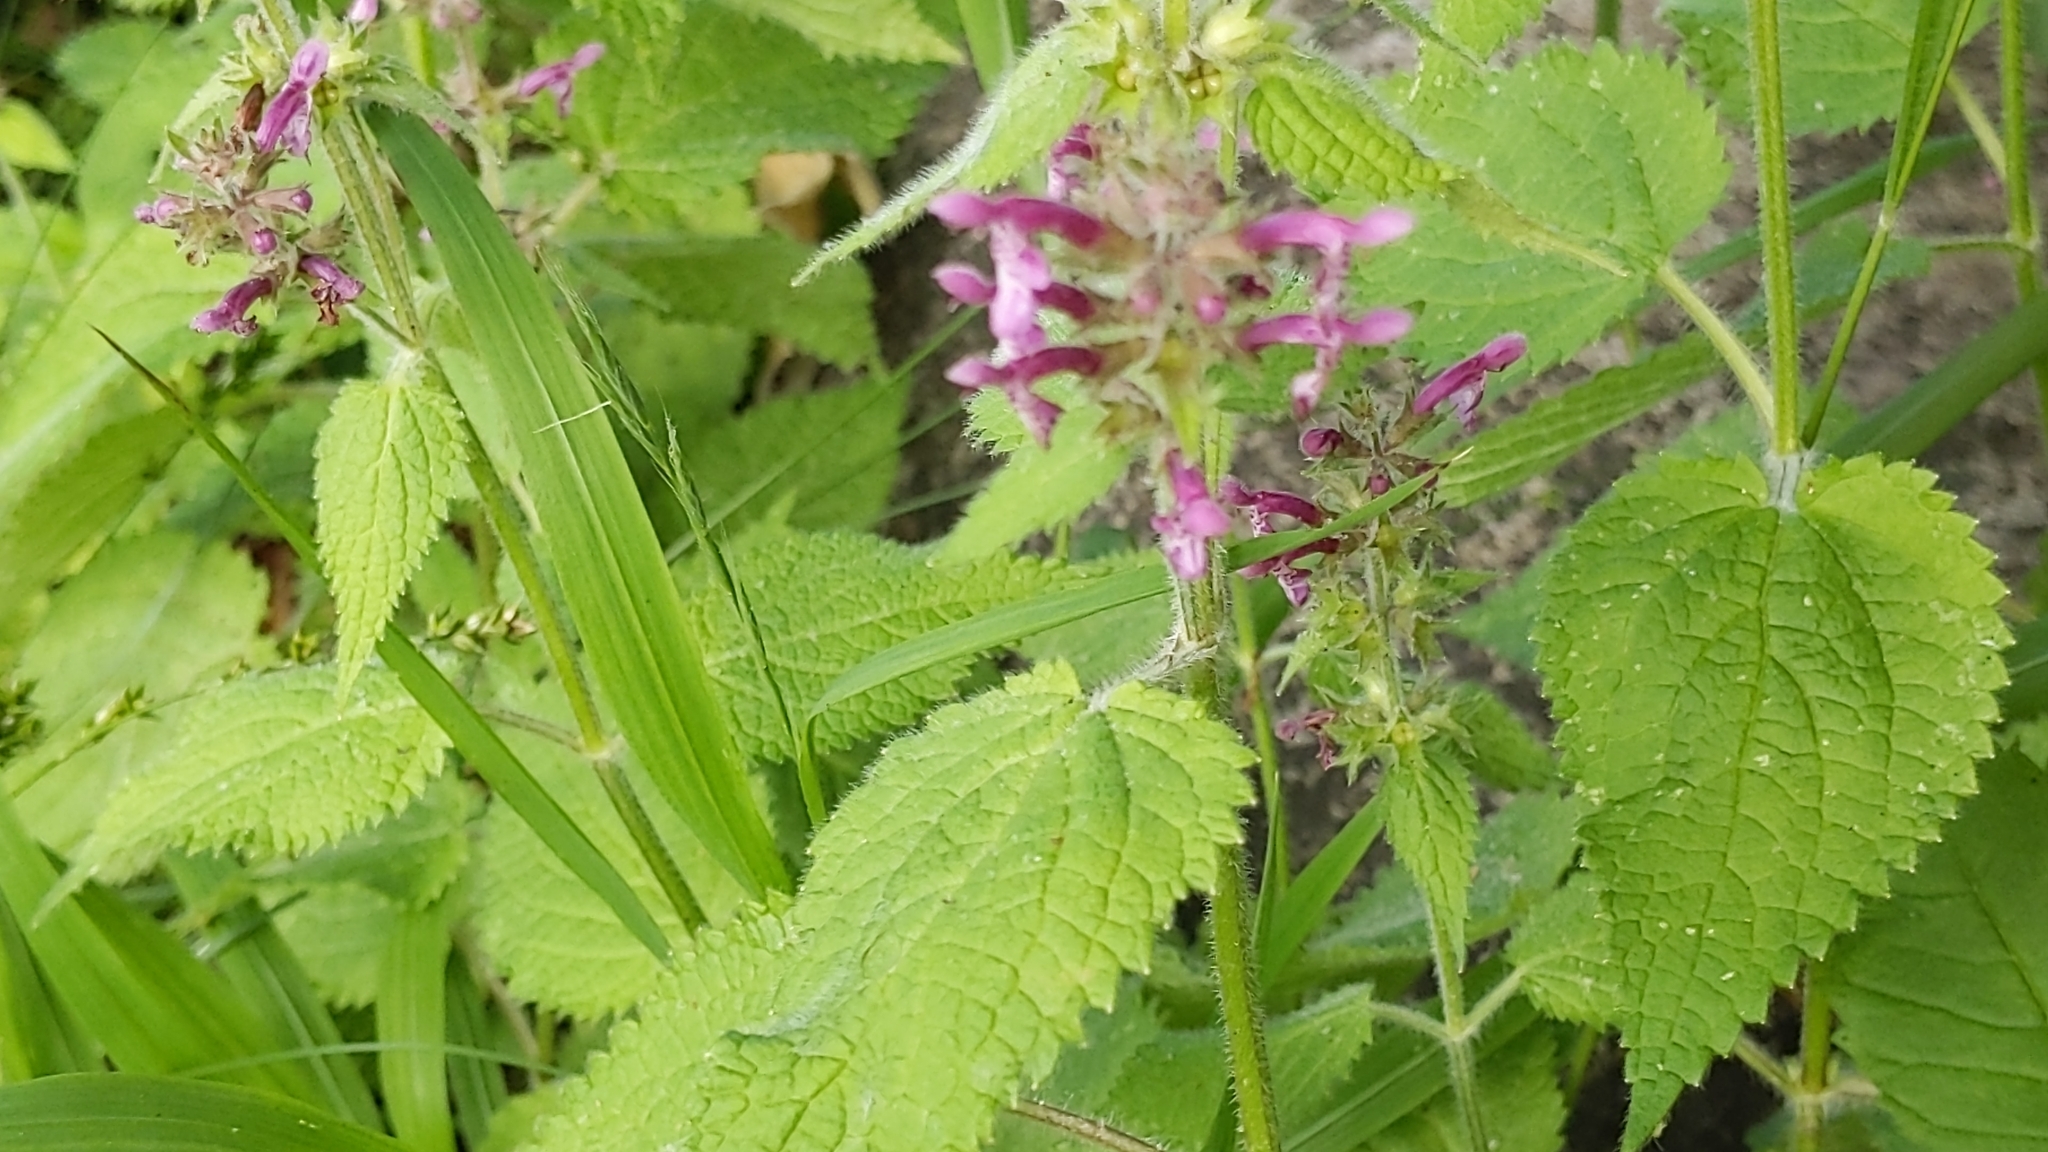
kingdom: Plantae
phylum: Tracheophyta
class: Magnoliopsida
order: Lamiales
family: Lamiaceae
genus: Stachys
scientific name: Stachys sylvatica
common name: Hedge woundwort
